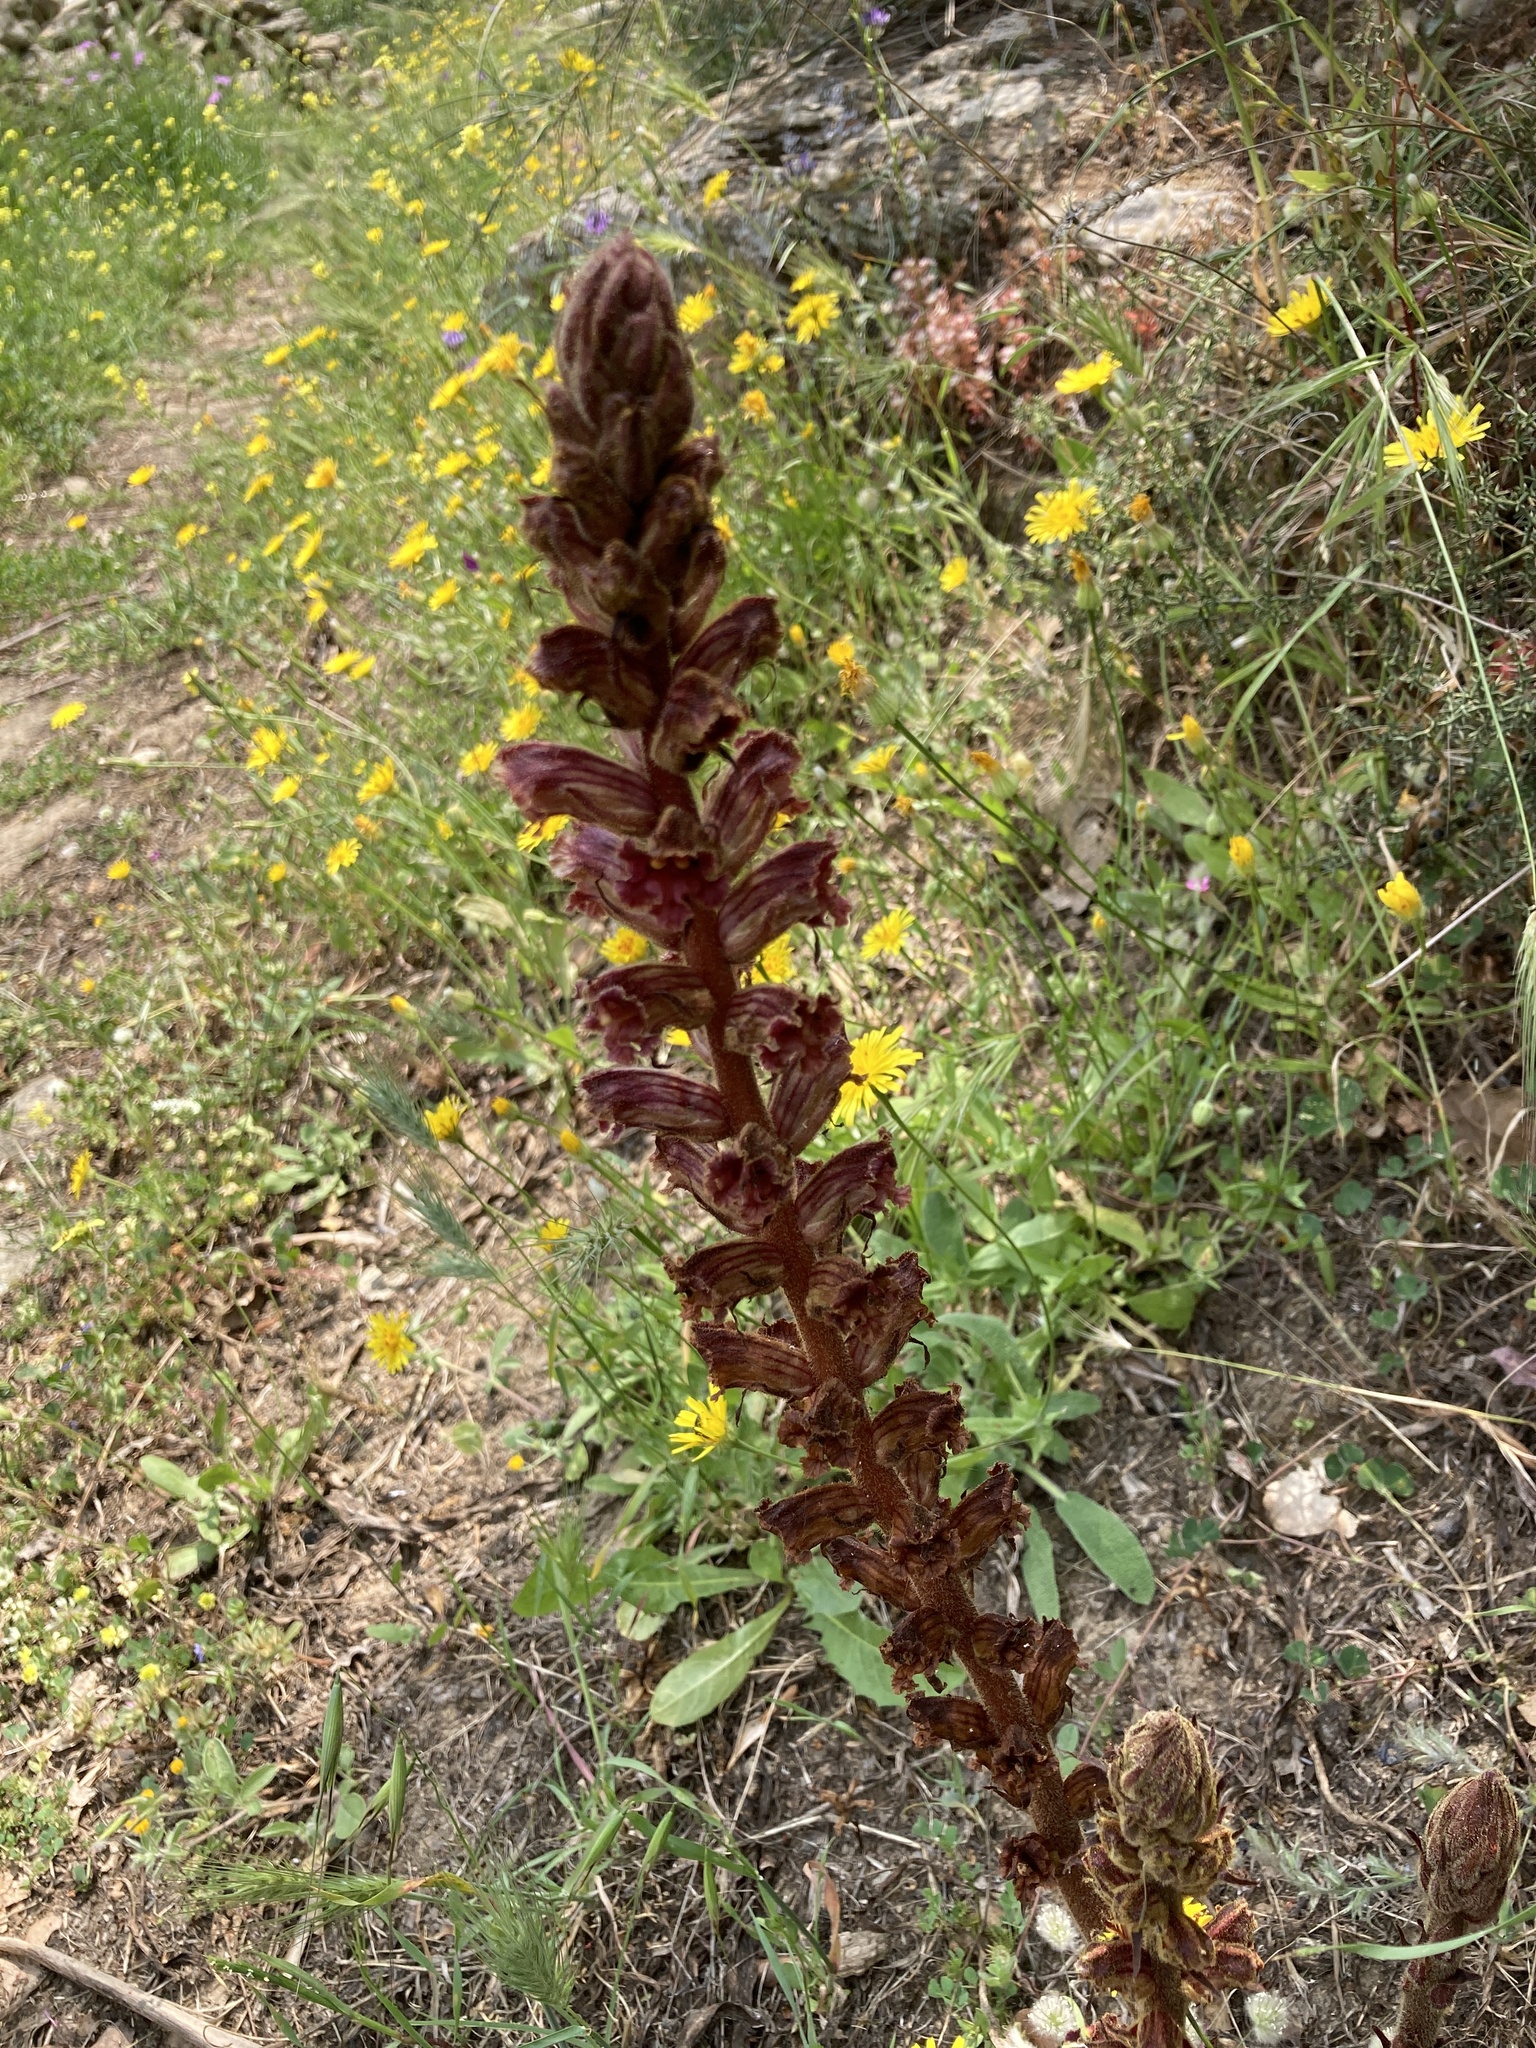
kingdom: Plantae
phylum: Tracheophyta
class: Magnoliopsida
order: Lamiales
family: Orobanchaceae
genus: Orobanche
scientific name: Orobanche gracilis
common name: Slender broomrape
